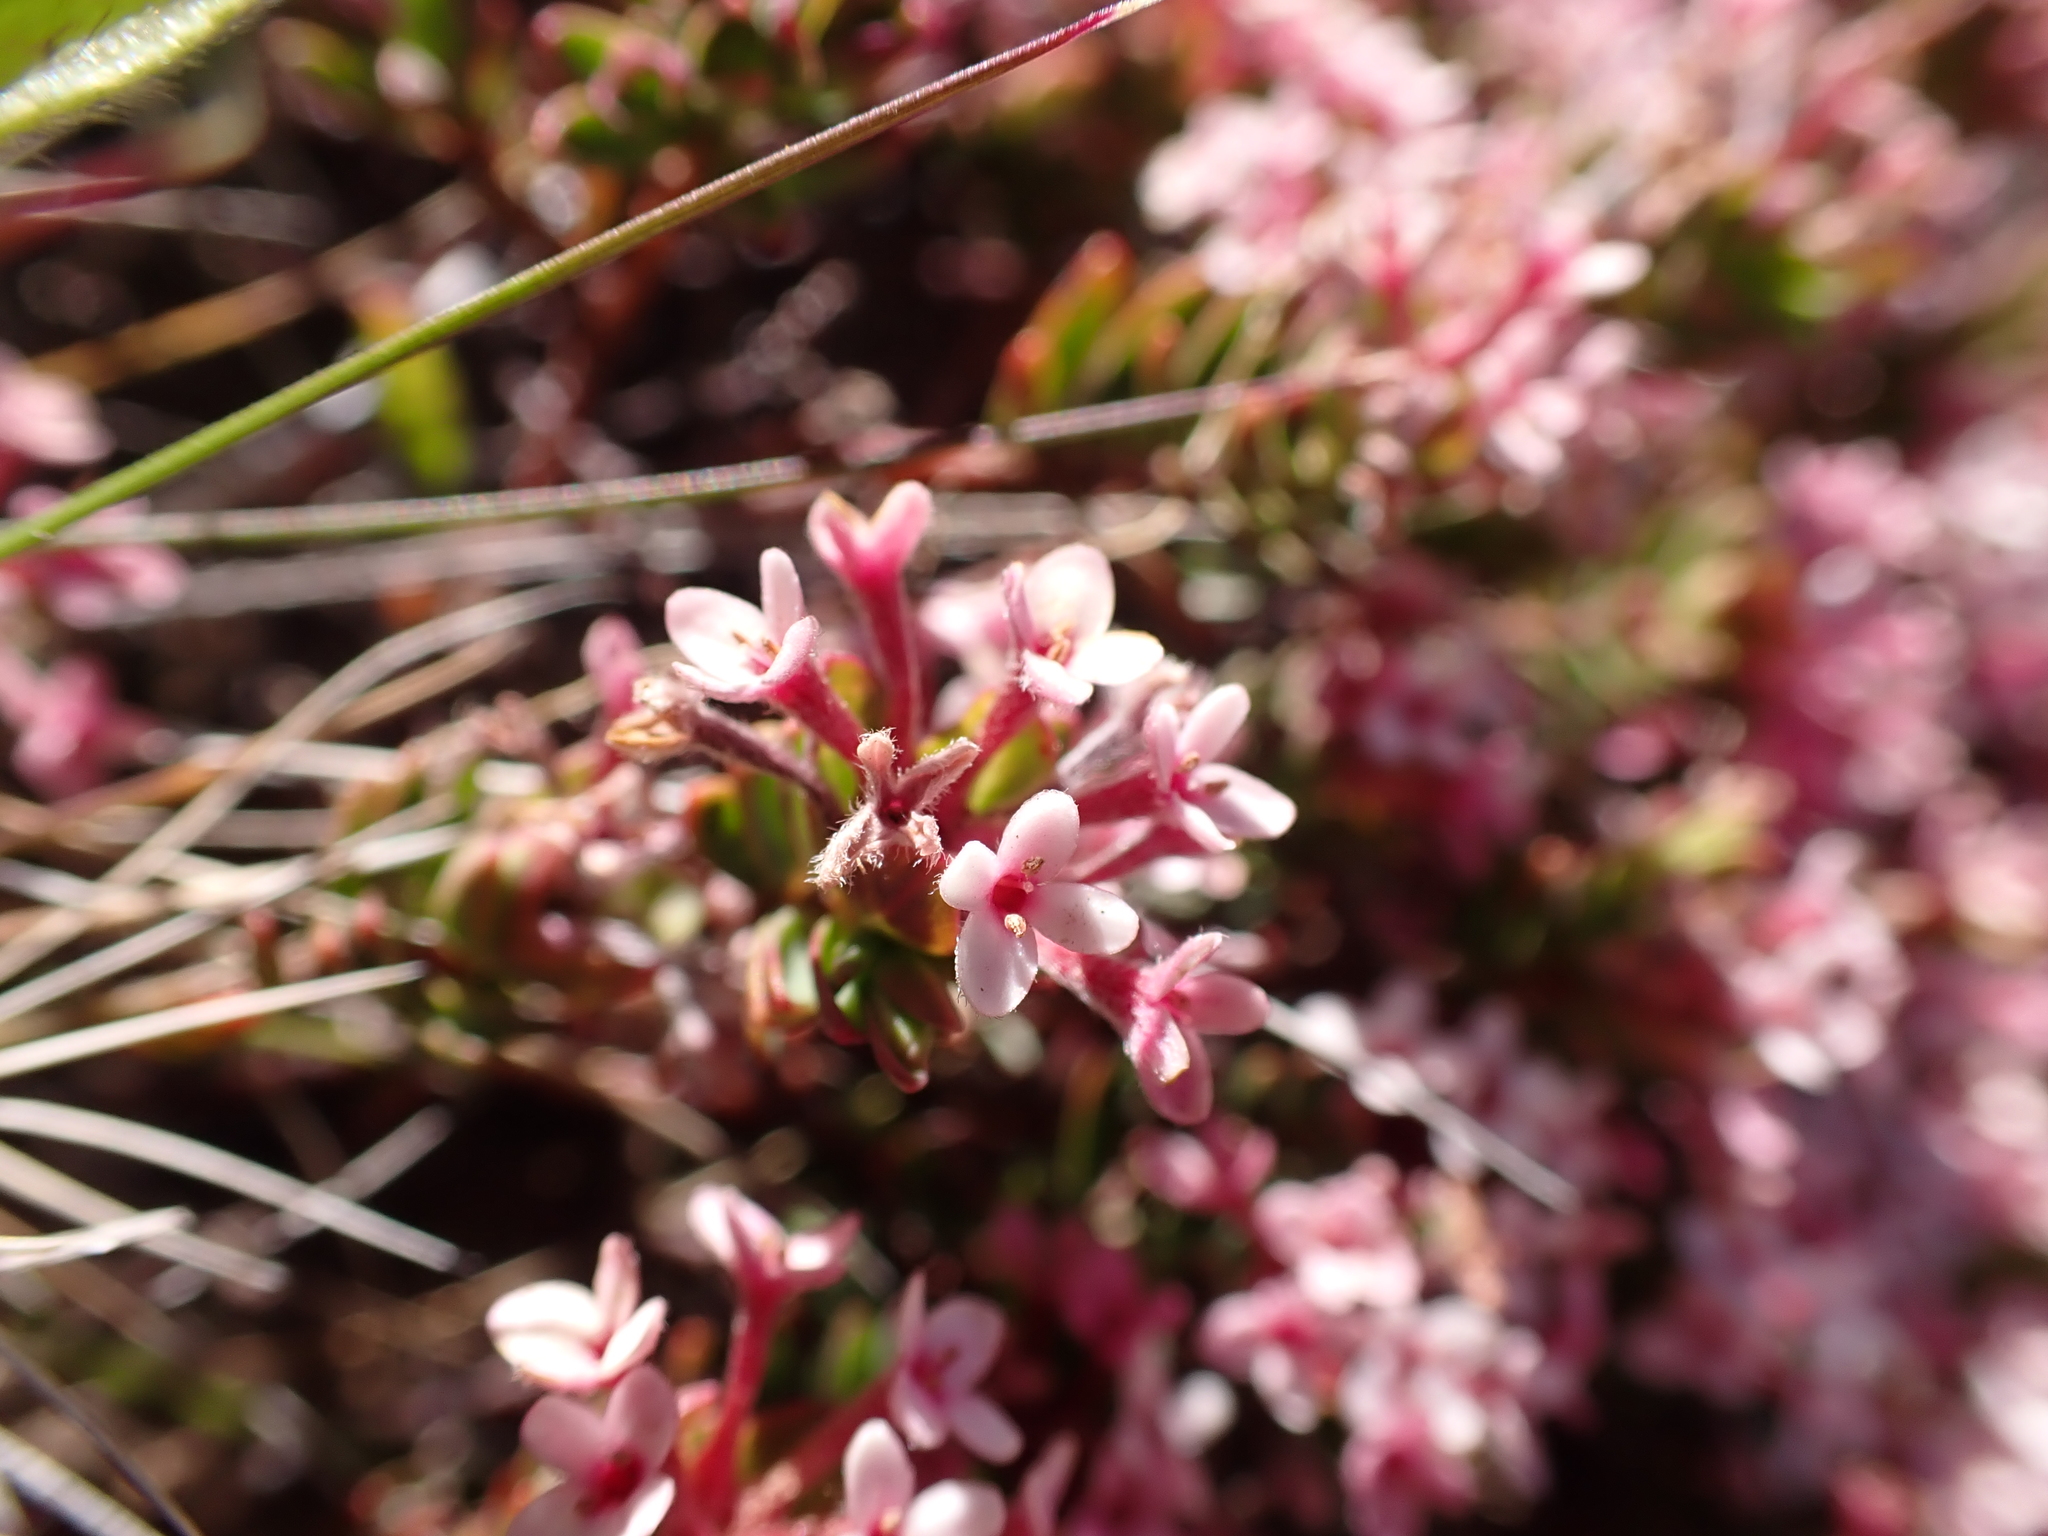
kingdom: Plantae
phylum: Tracheophyta
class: Magnoliopsida
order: Malvales
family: Thymelaeaceae
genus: Pimelea
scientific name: Pimelea alpina
